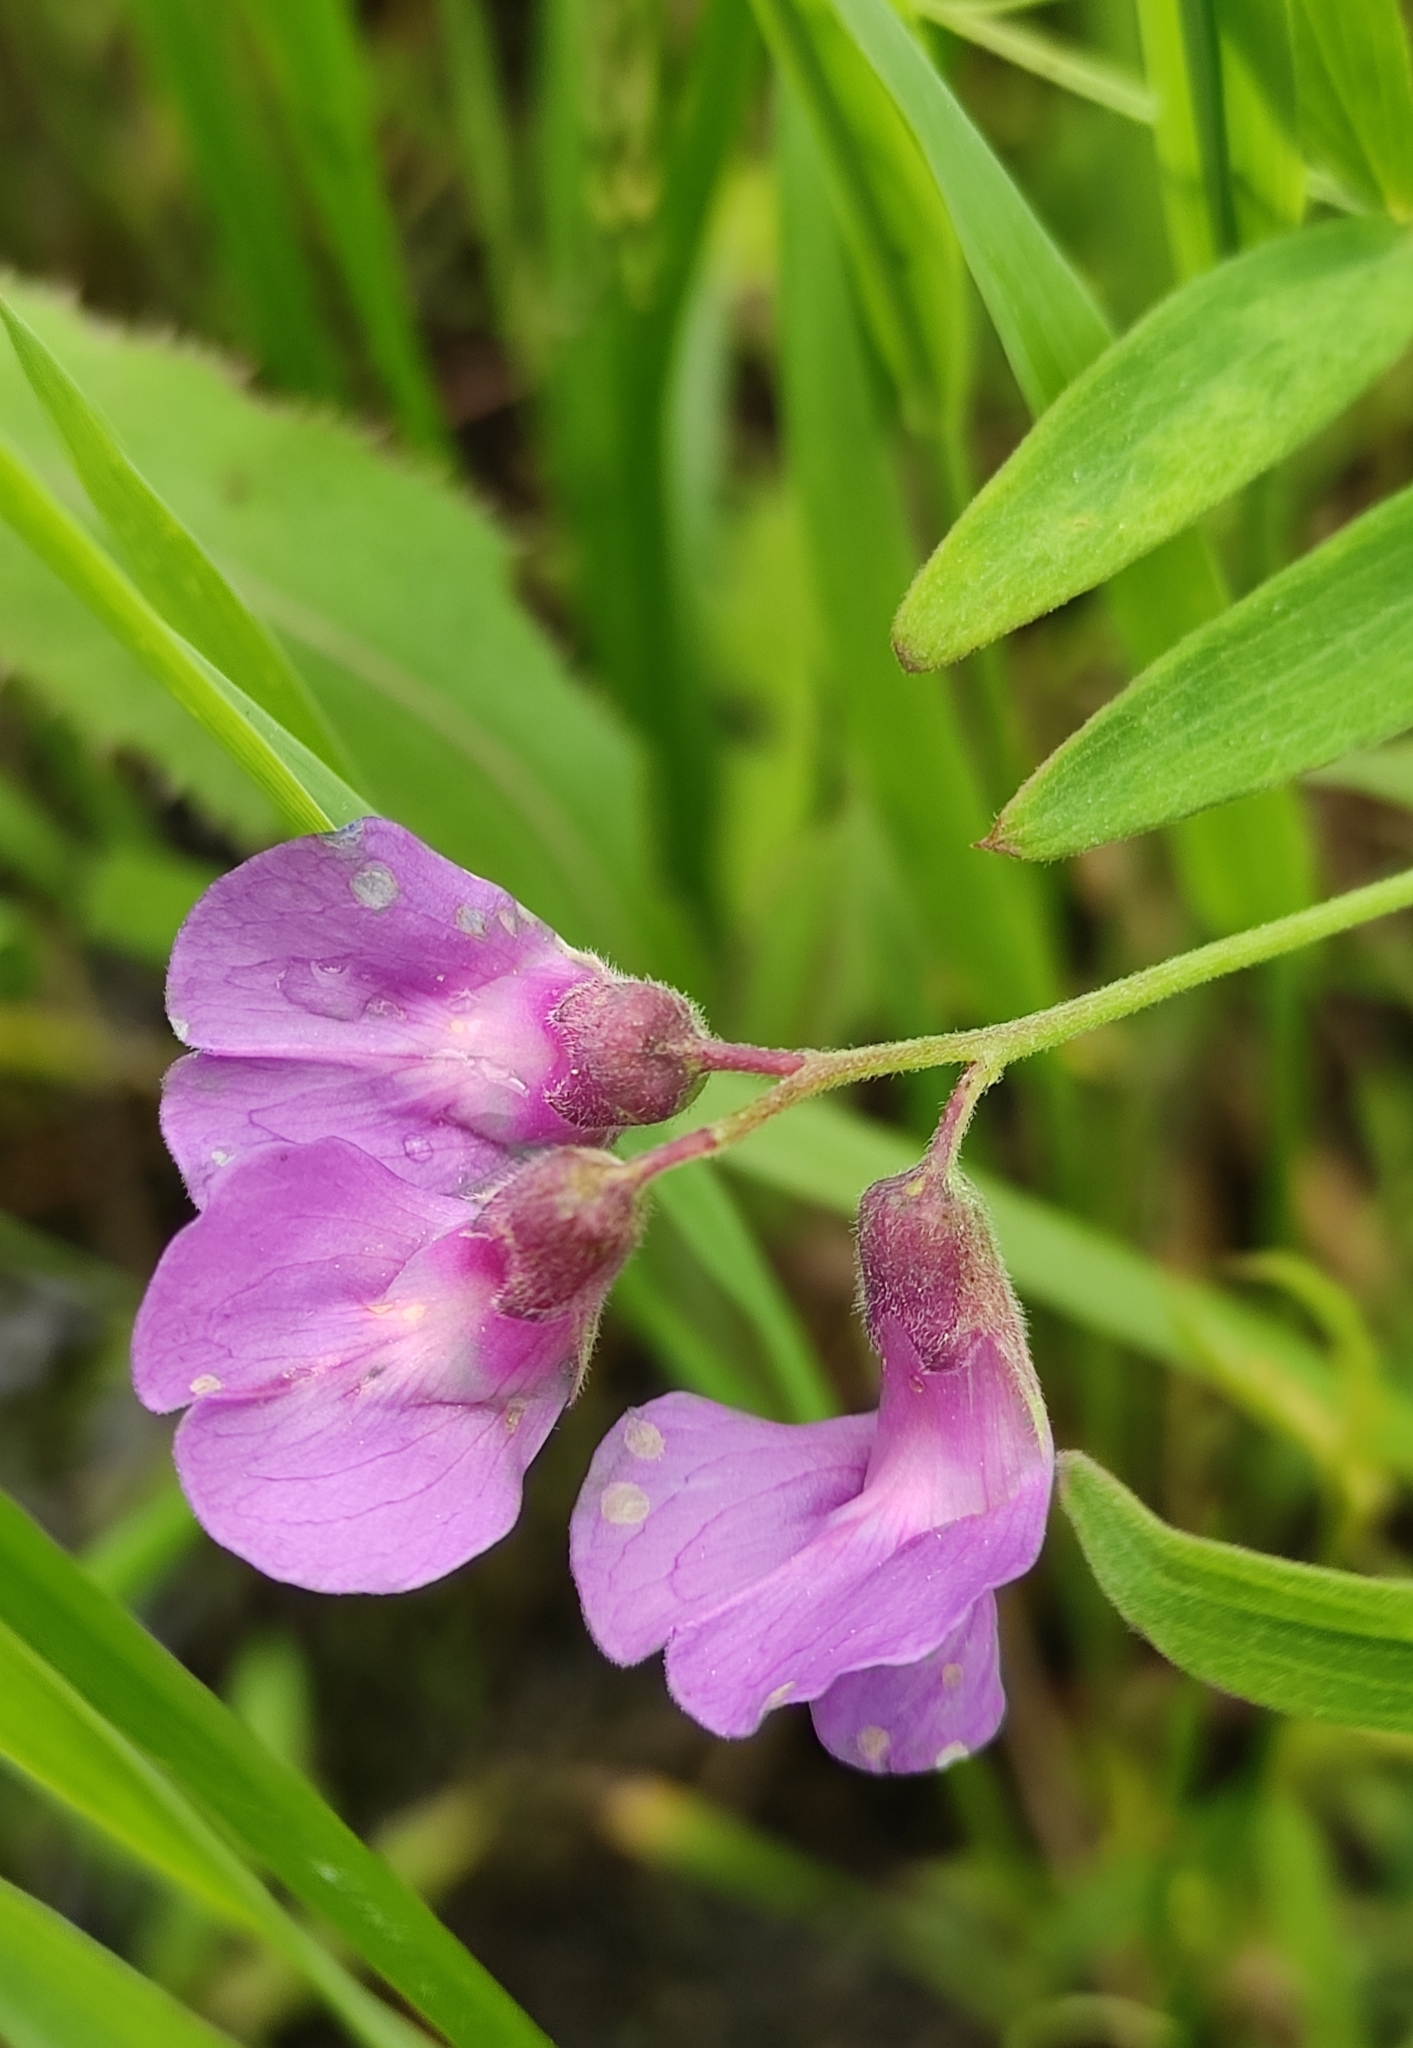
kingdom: Plantae
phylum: Tracheophyta
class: Magnoliopsida
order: Fabales
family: Fabaceae
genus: Lathyrus
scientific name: Lathyrus palustris
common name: Marsh pea
